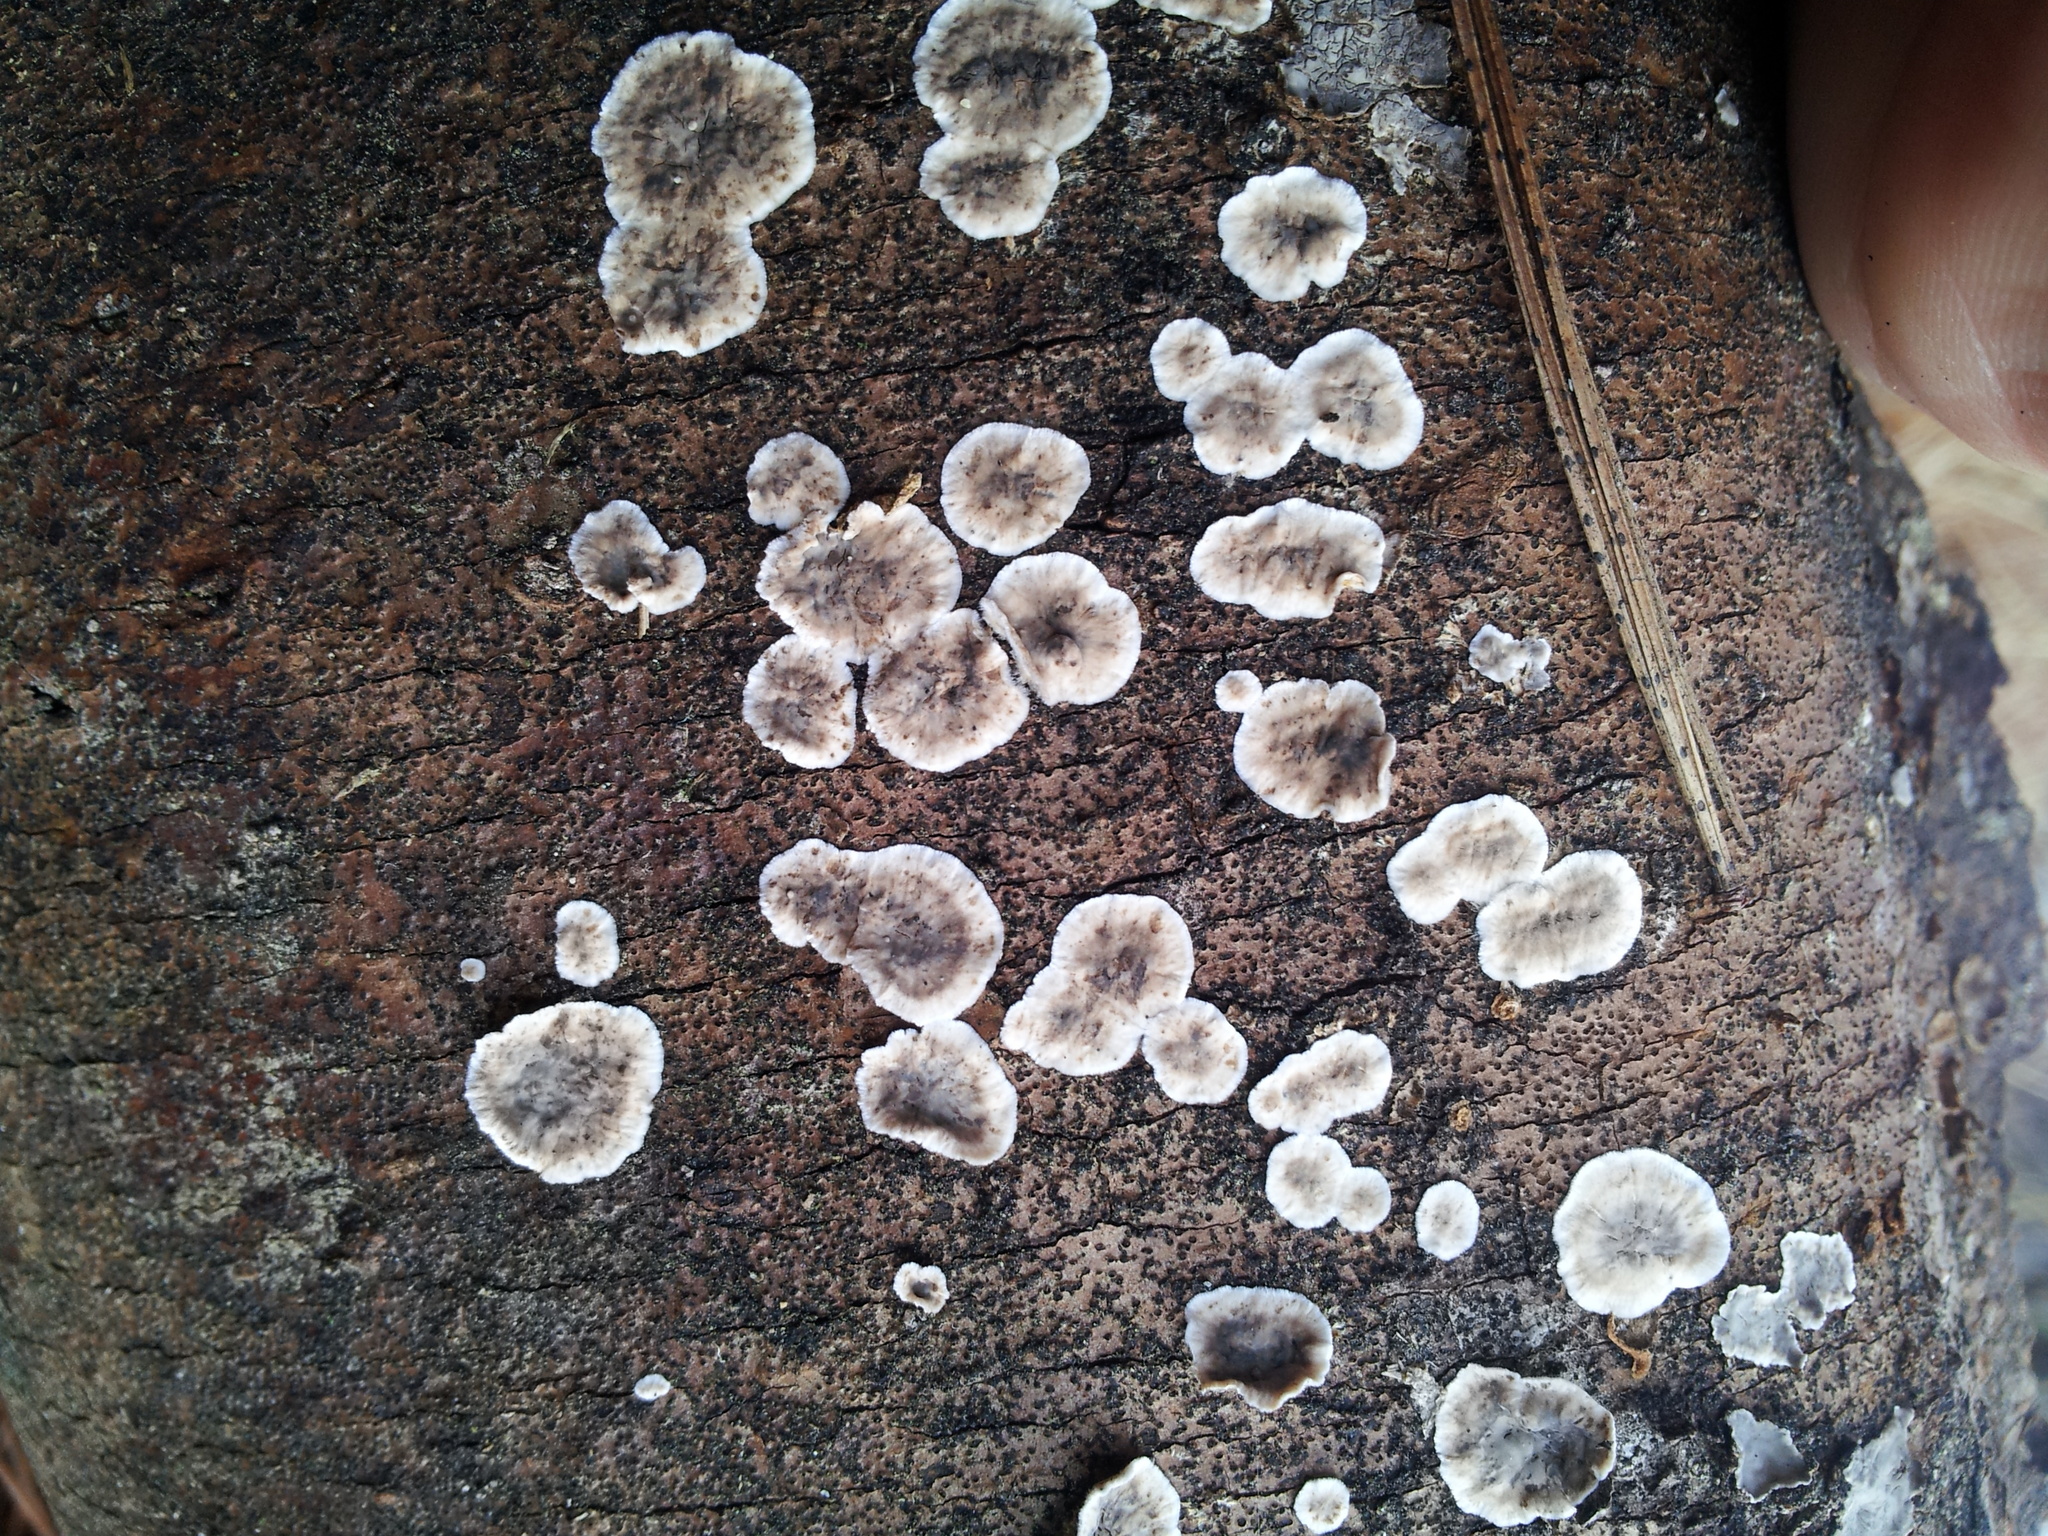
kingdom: Fungi
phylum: Basidiomycota
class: Agaricomycetes
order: Russulales
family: Peniophoraceae
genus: Peniophora
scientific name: Peniophora albobadia
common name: Giraffe spots
